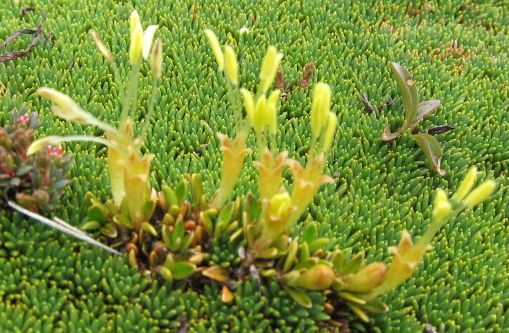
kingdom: Plantae
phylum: Tracheophyta
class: Magnoliopsida
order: Gentianales
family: Rubiaceae
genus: Coprosma
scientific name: Coprosma perpusilla
